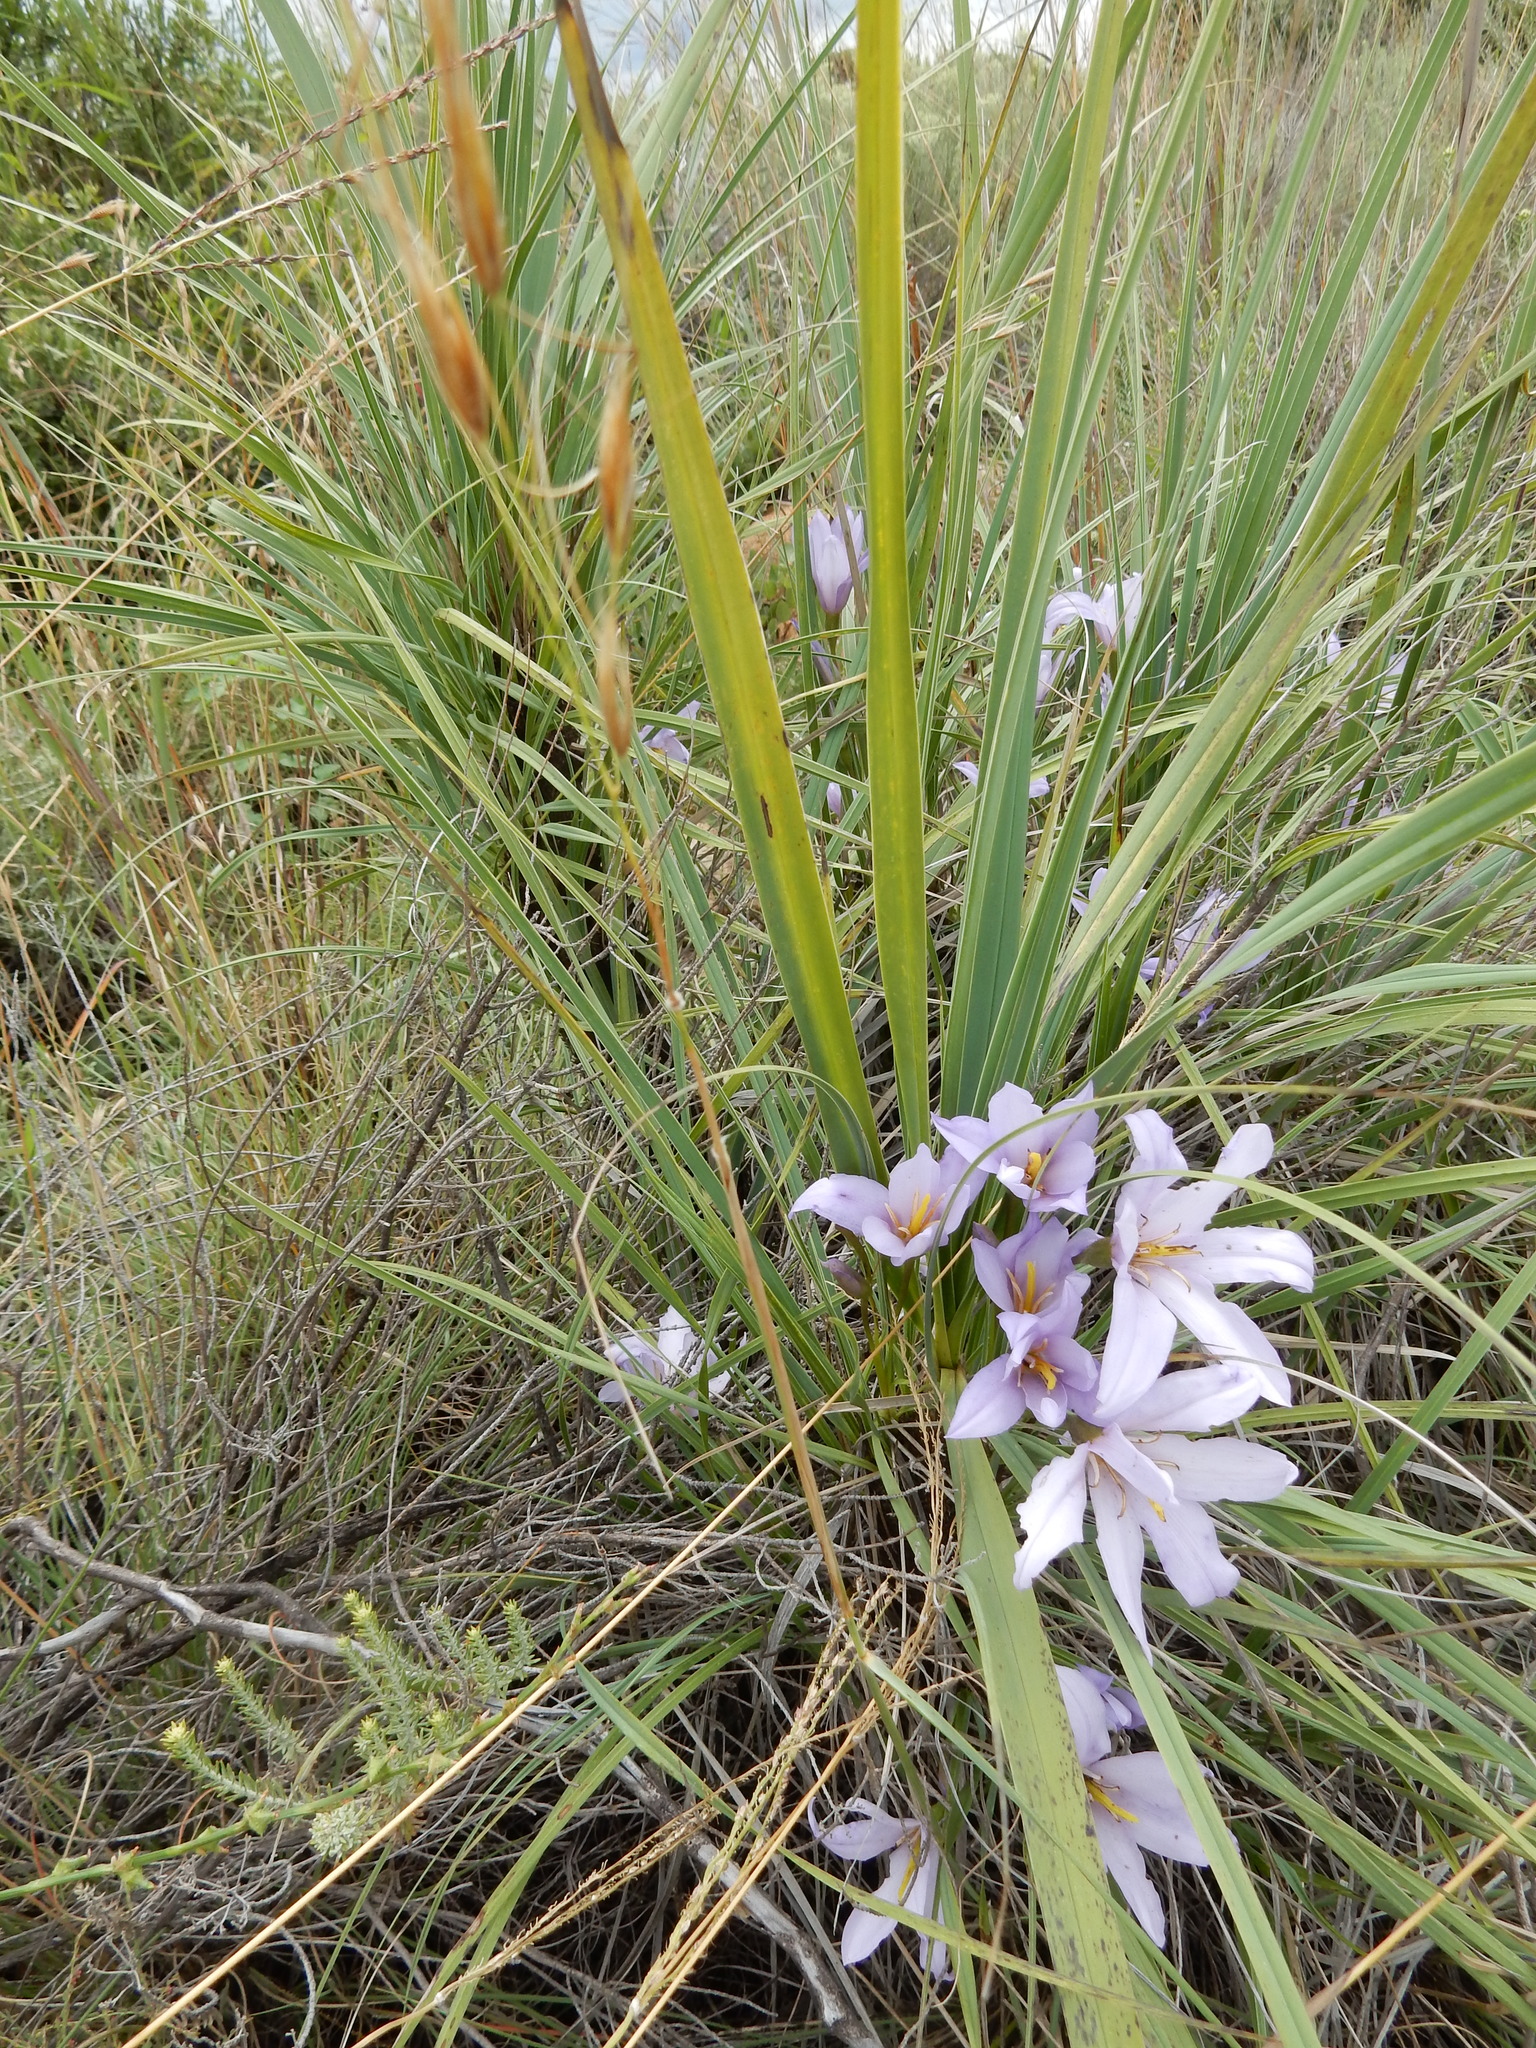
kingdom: Plantae
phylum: Tracheophyta
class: Liliopsida
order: Pandanales
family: Velloziaceae
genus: Xerophyta
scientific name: Xerophyta retinervis
